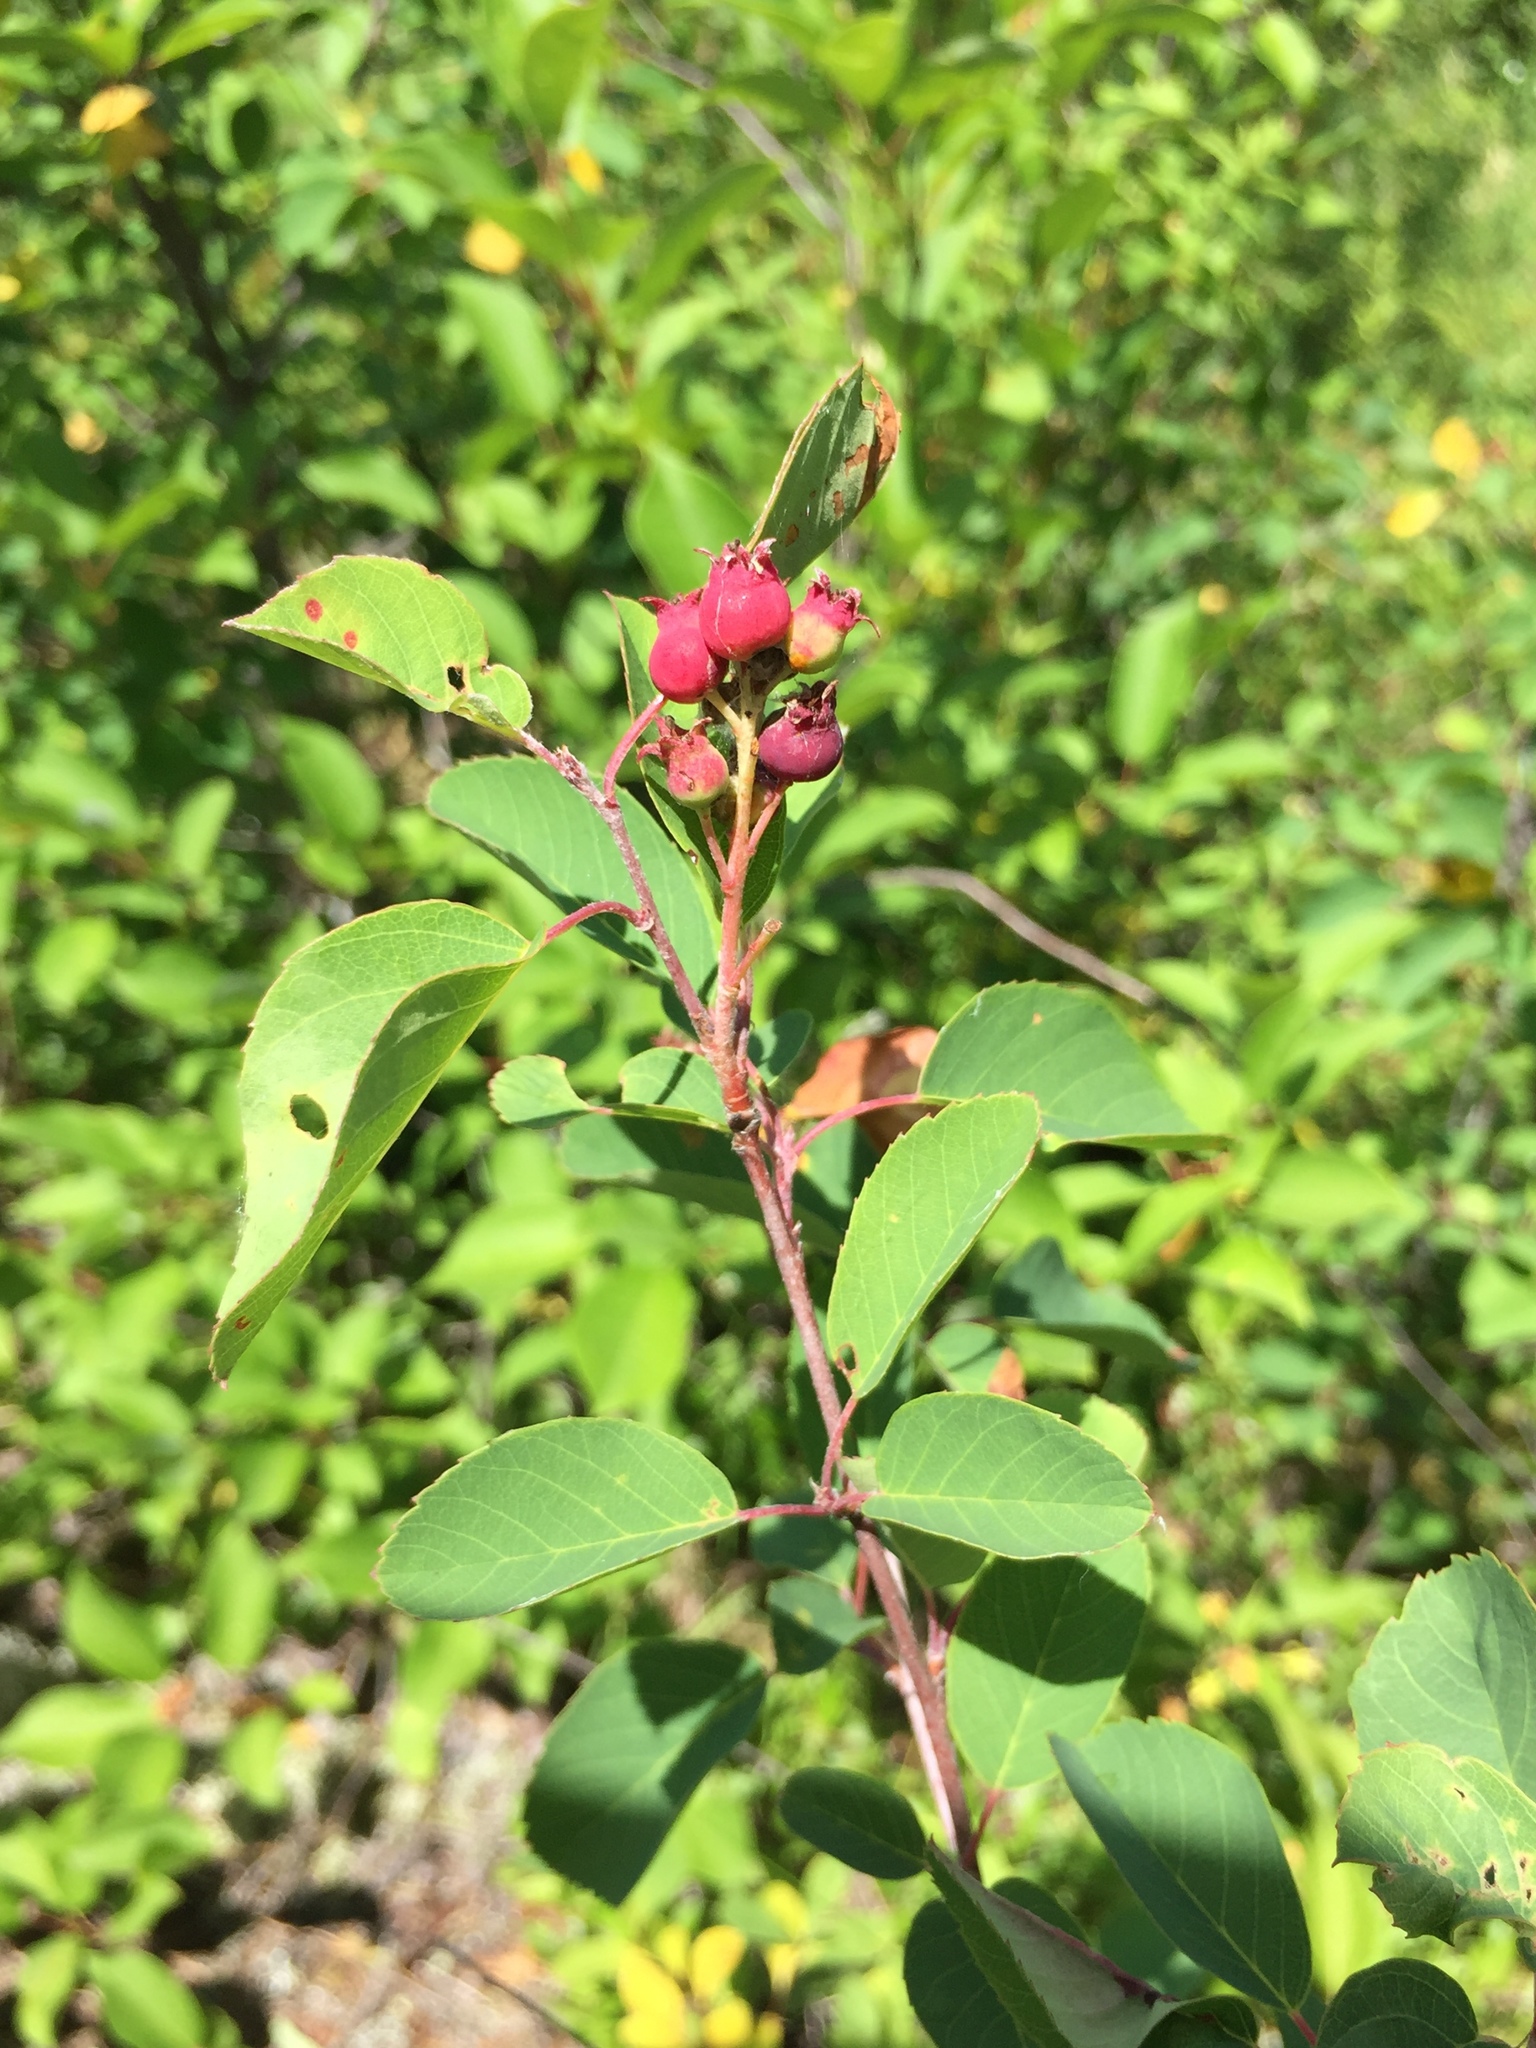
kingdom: Plantae
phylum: Tracheophyta
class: Magnoliopsida
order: Rosales
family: Rosaceae
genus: Amelanchier
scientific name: Amelanchier alnifolia
